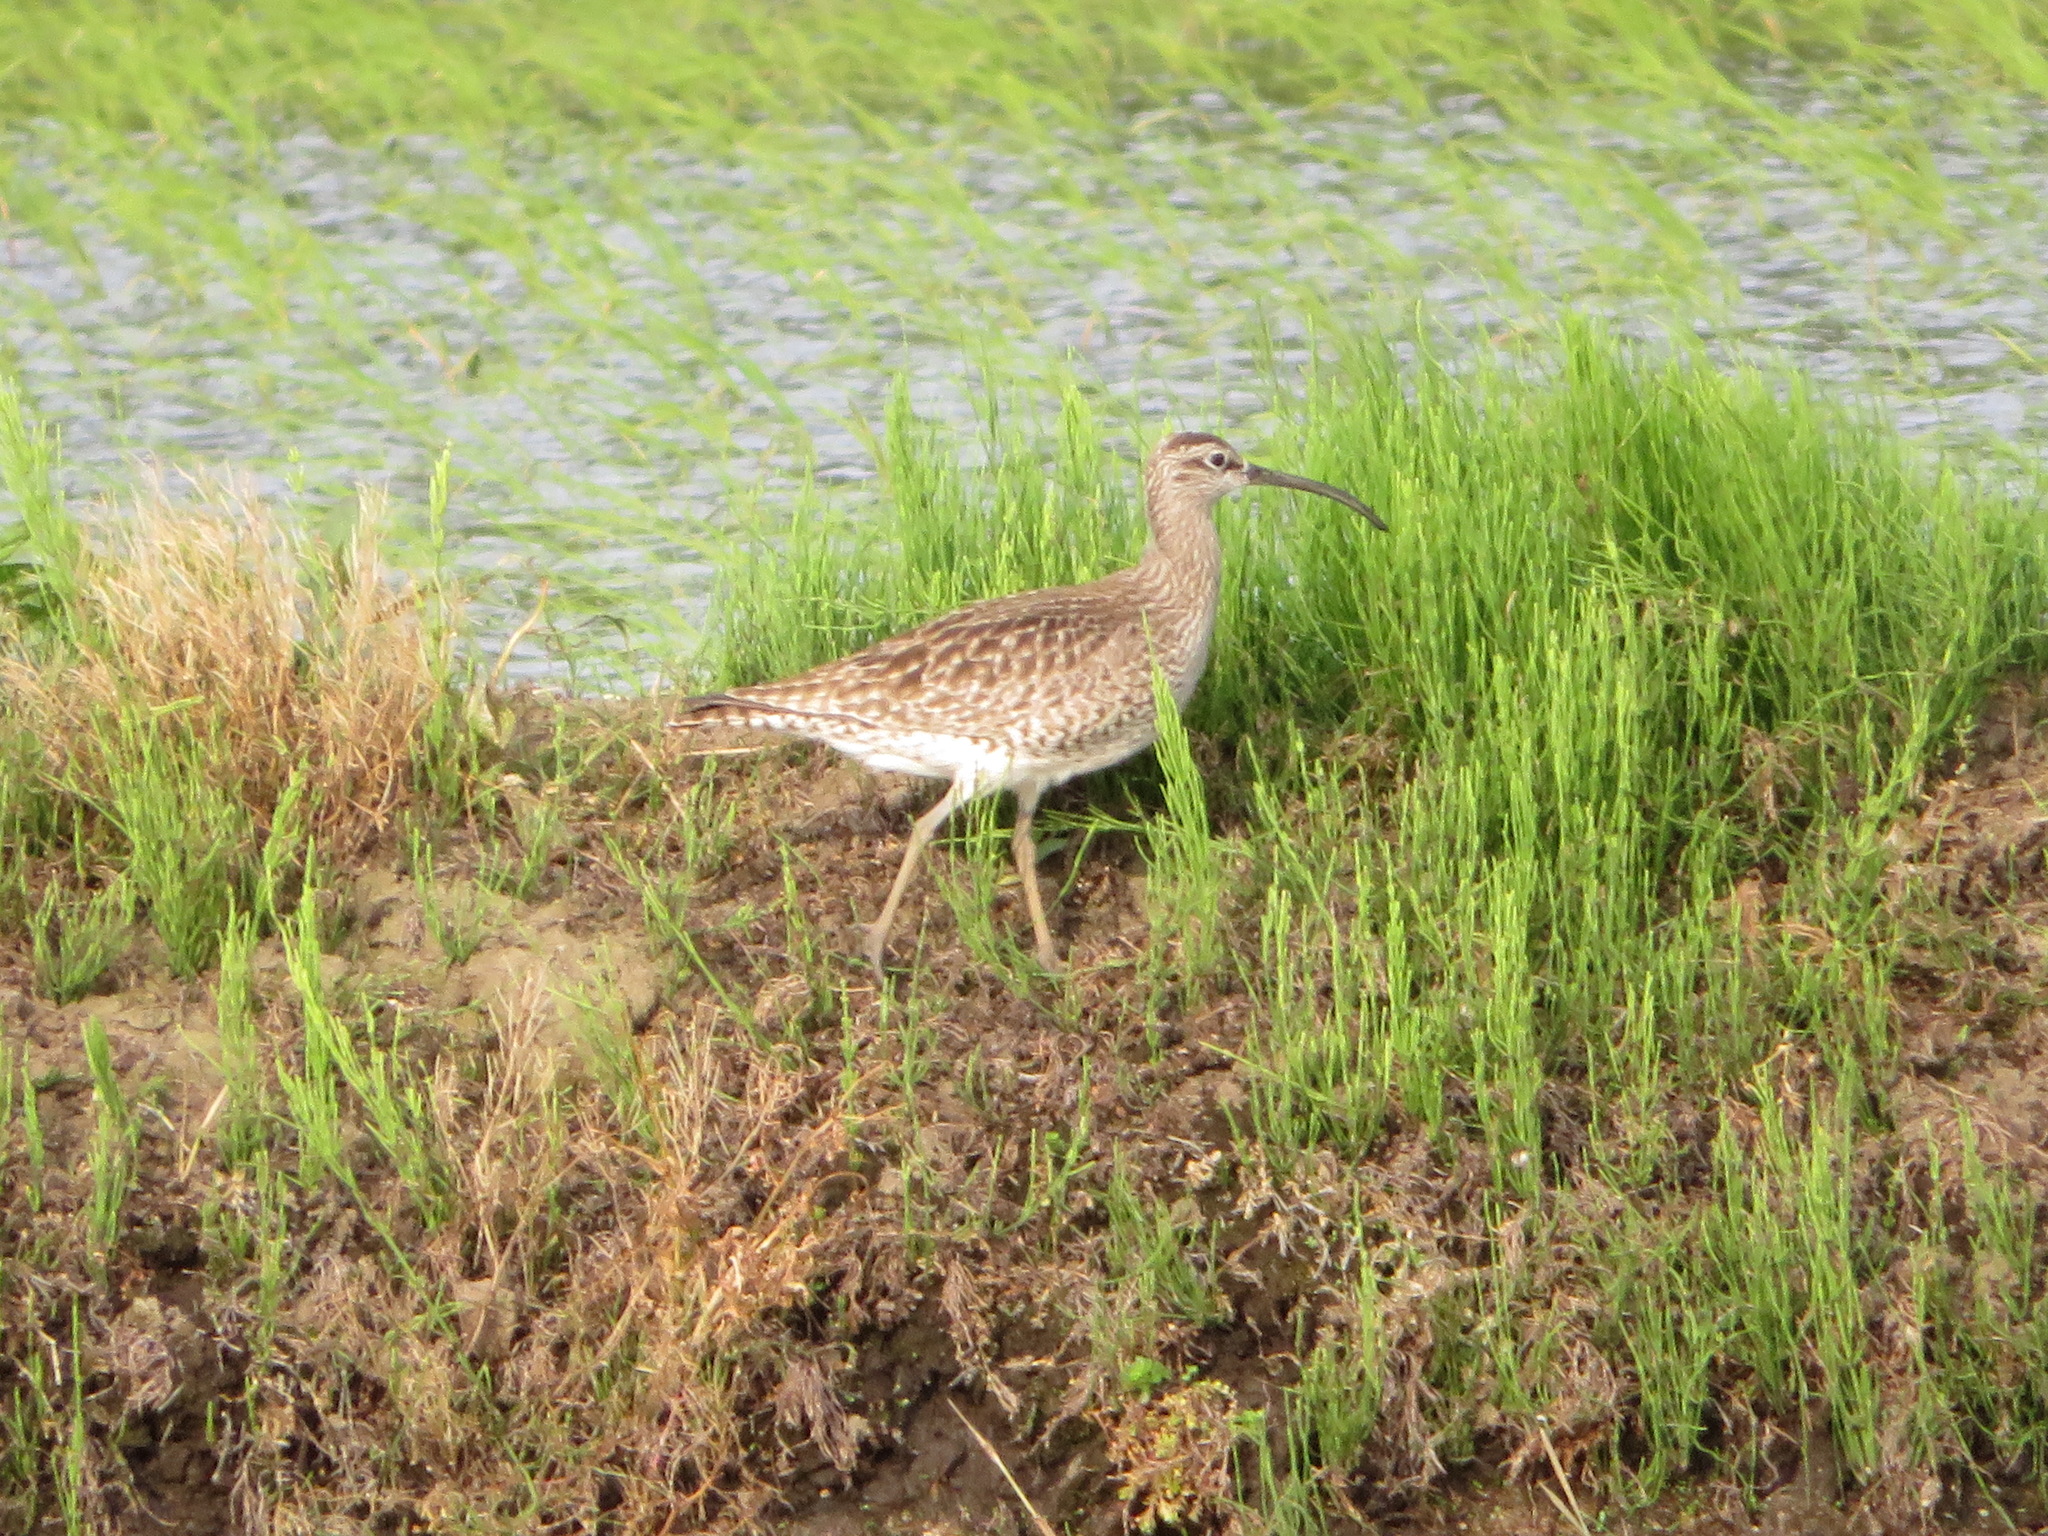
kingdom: Animalia
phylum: Chordata
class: Aves
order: Charadriiformes
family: Scolopacidae
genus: Numenius
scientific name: Numenius phaeopus
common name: Whimbrel
